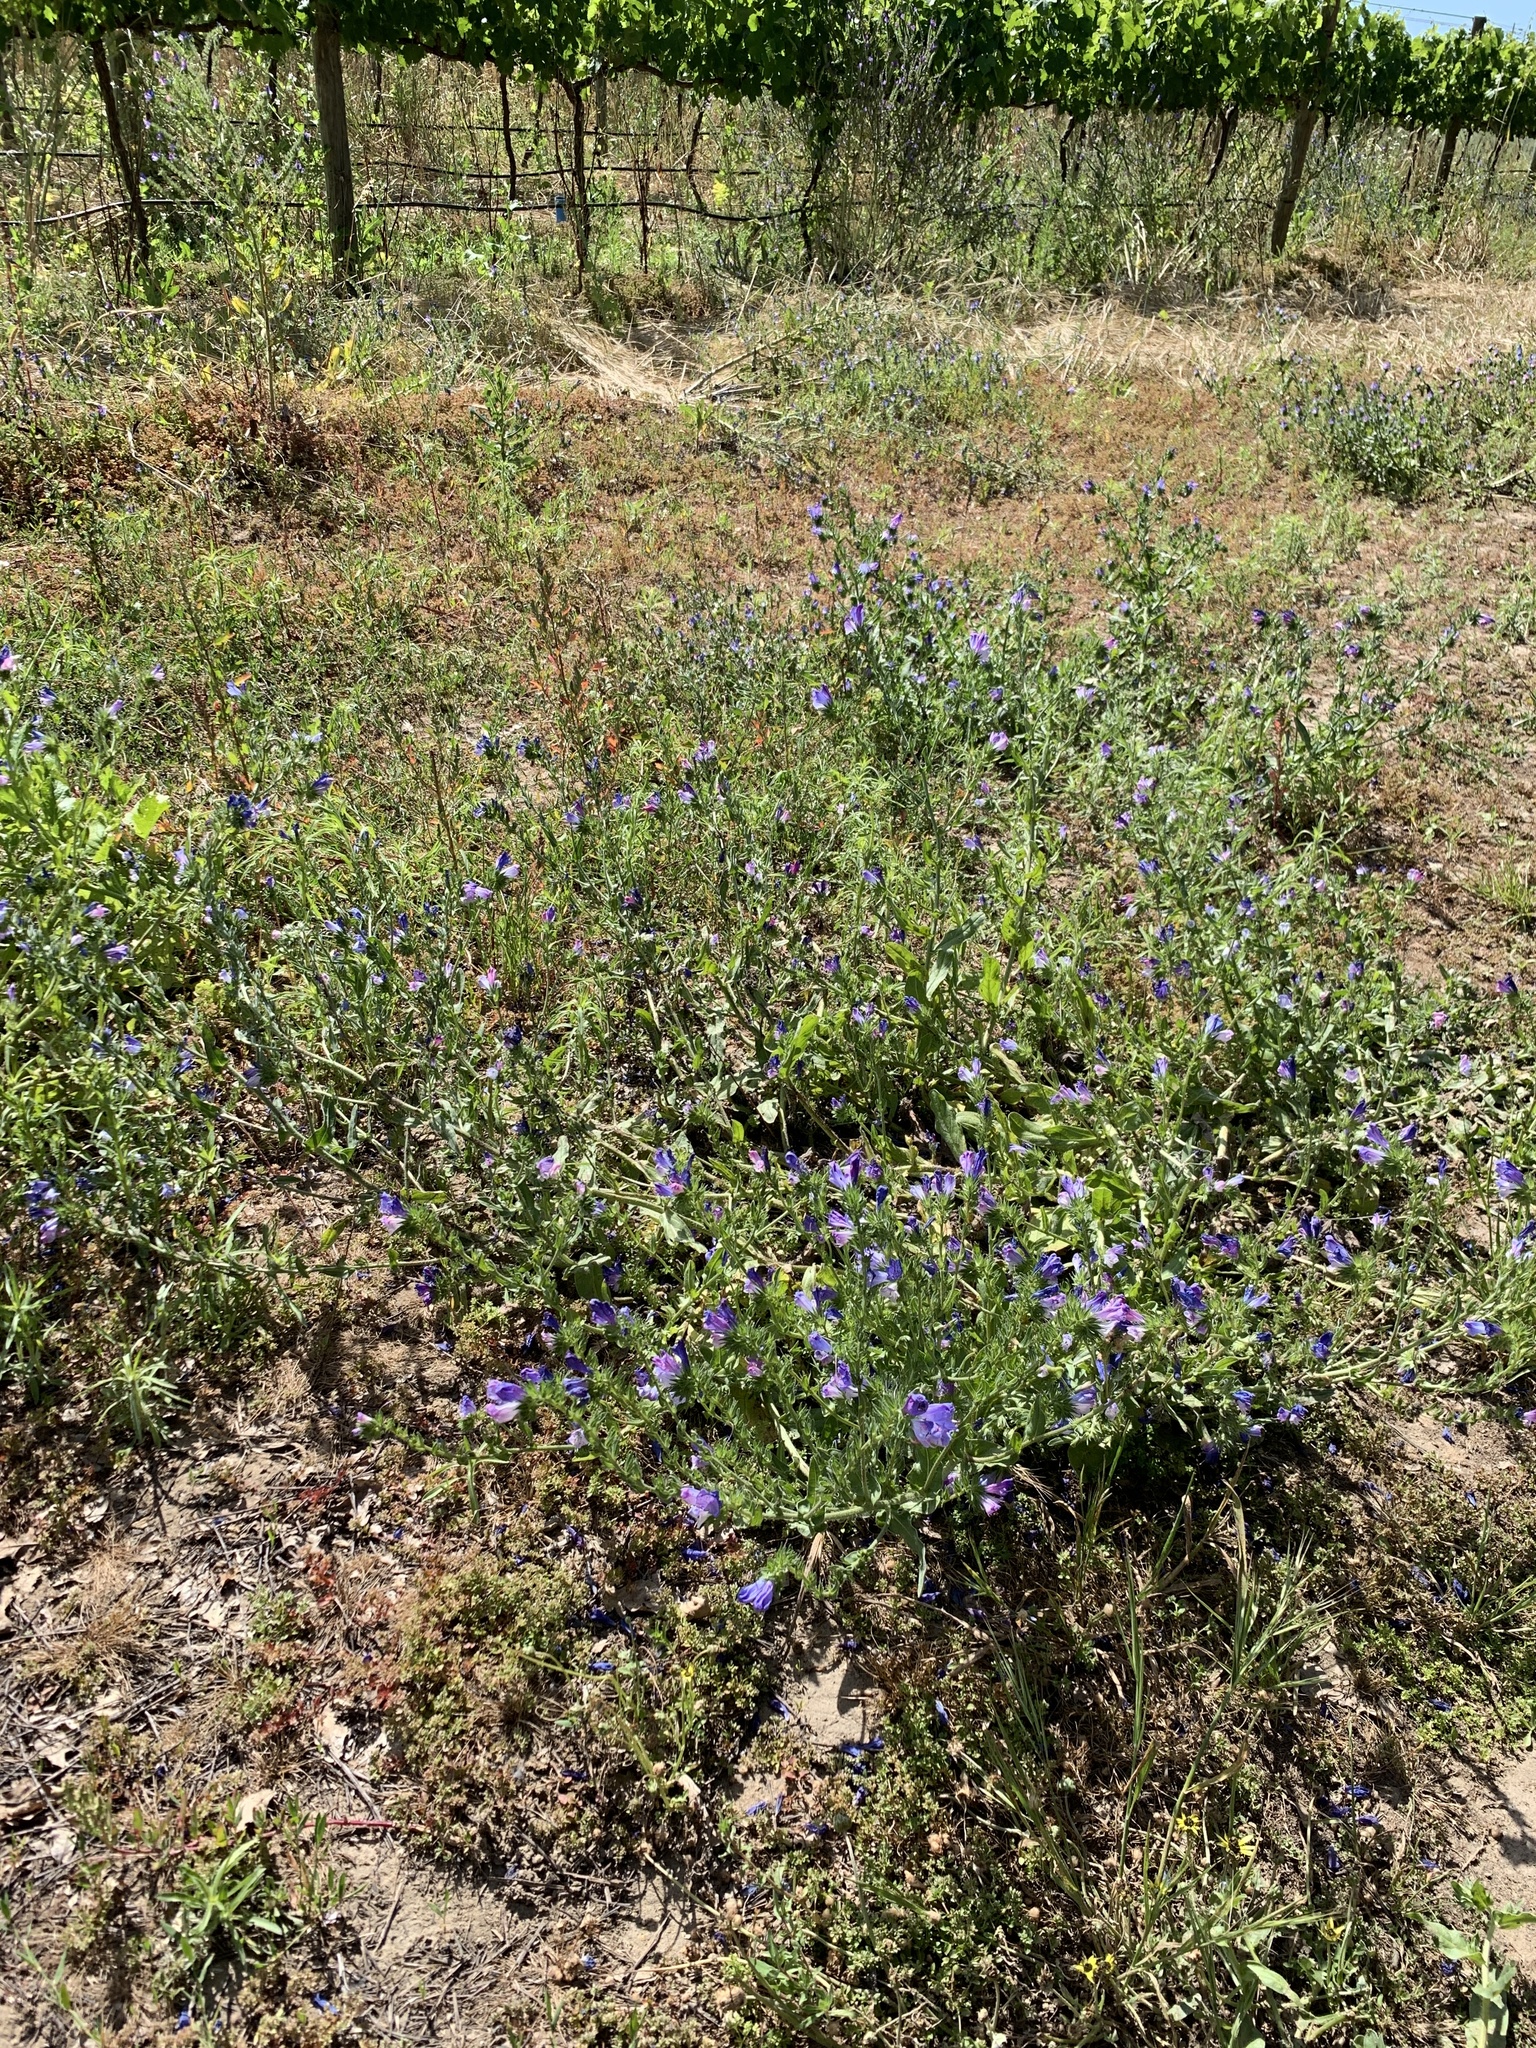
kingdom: Plantae
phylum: Tracheophyta
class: Magnoliopsida
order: Boraginales
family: Boraginaceae
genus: Echium
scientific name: Echium plantagineum
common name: Purple viper's-bugloss
